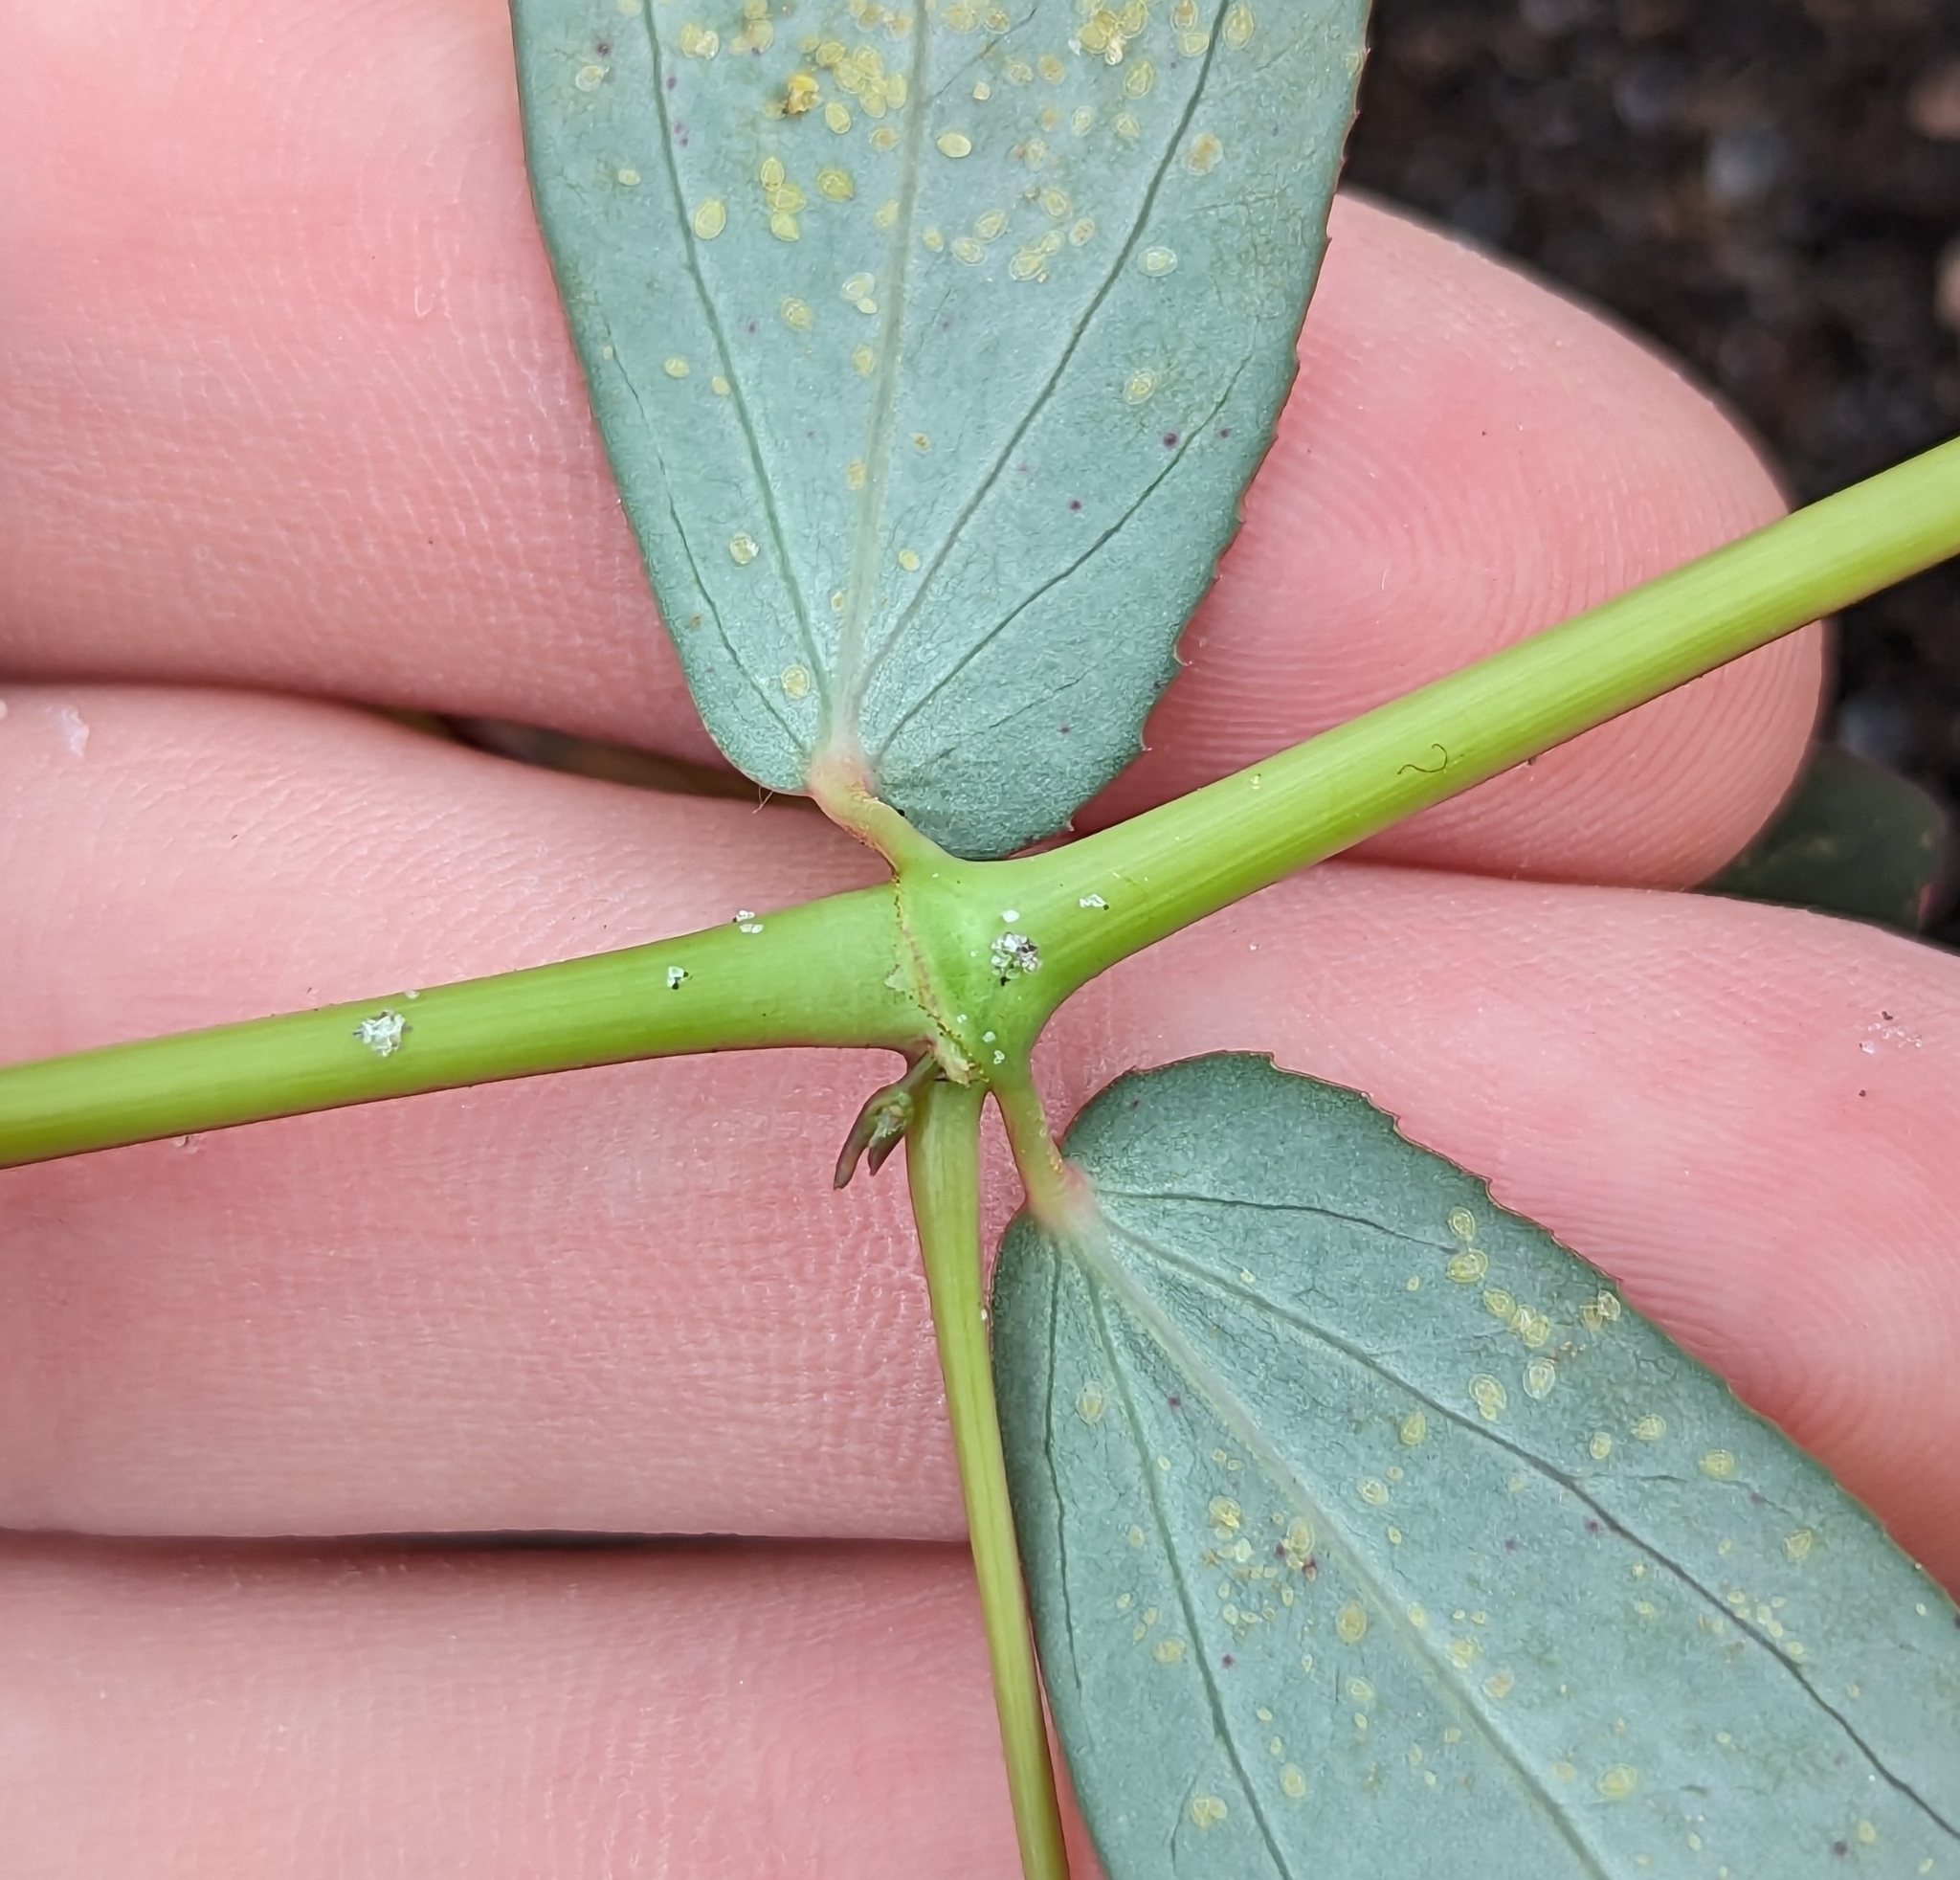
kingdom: Plantae
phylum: Tracheophyta
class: Magnoliopsida
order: Malpighiales
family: Euphorbiaceae
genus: Euphorbia
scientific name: Euphorbia hyssopifolia
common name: Hyssopleaf sandmat
